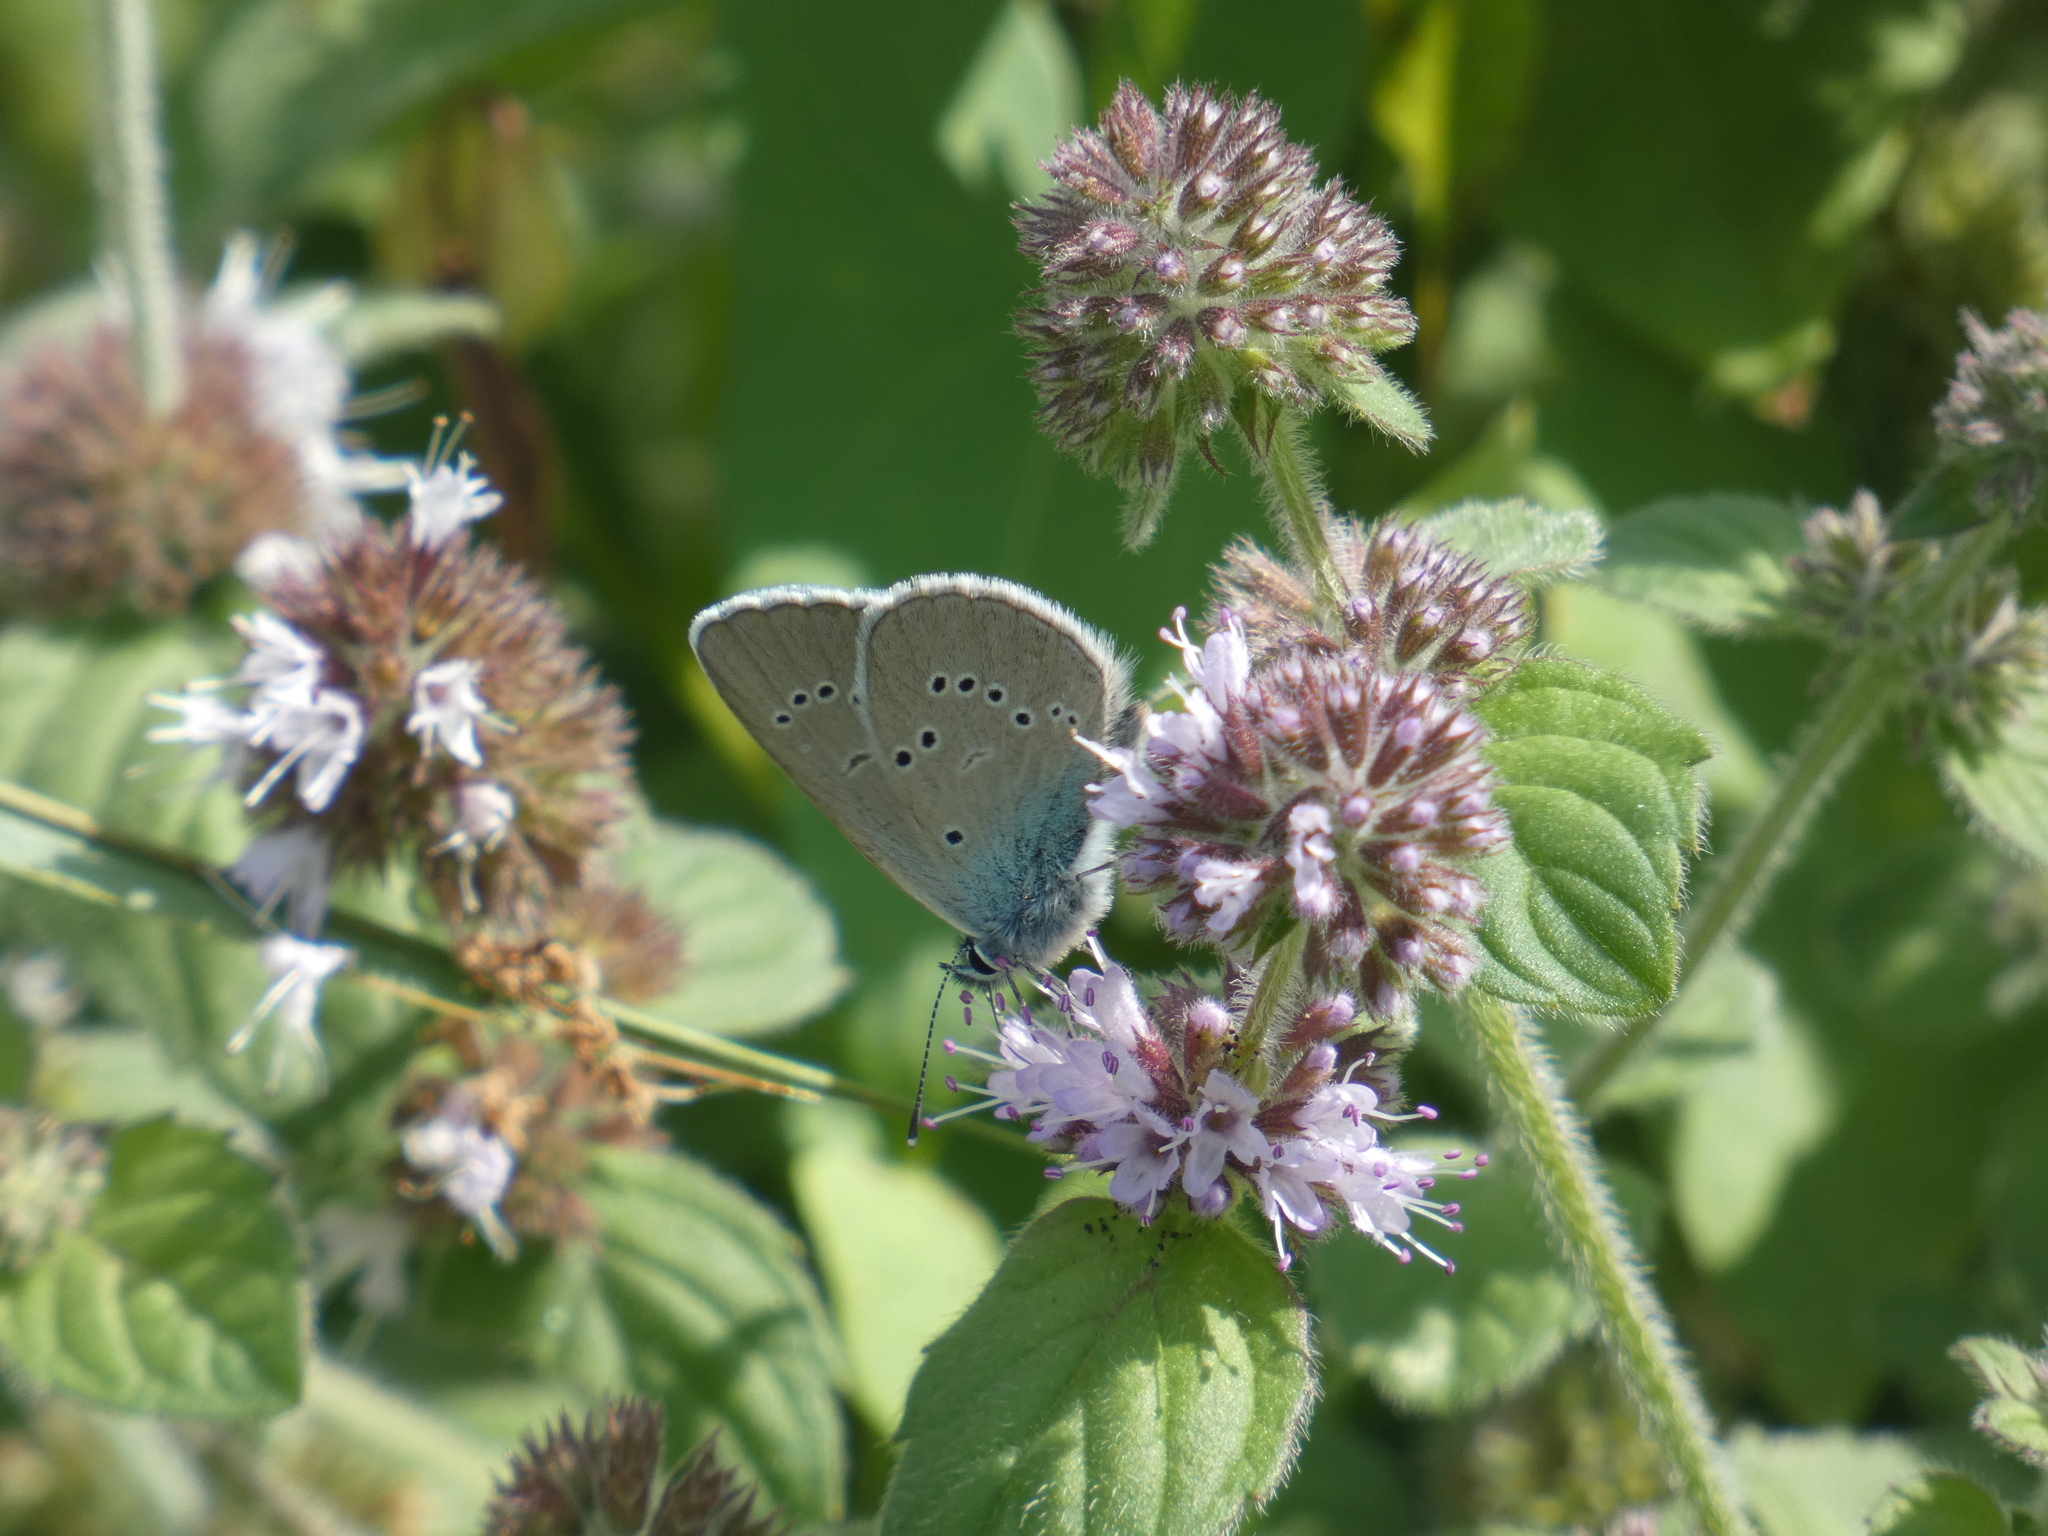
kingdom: Animalia
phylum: Arthropoda
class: Insecta
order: Lepidoptera
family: Lycaenidae
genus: Cyaniris
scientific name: Cyaniris semiargus
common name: Mazarine blue
